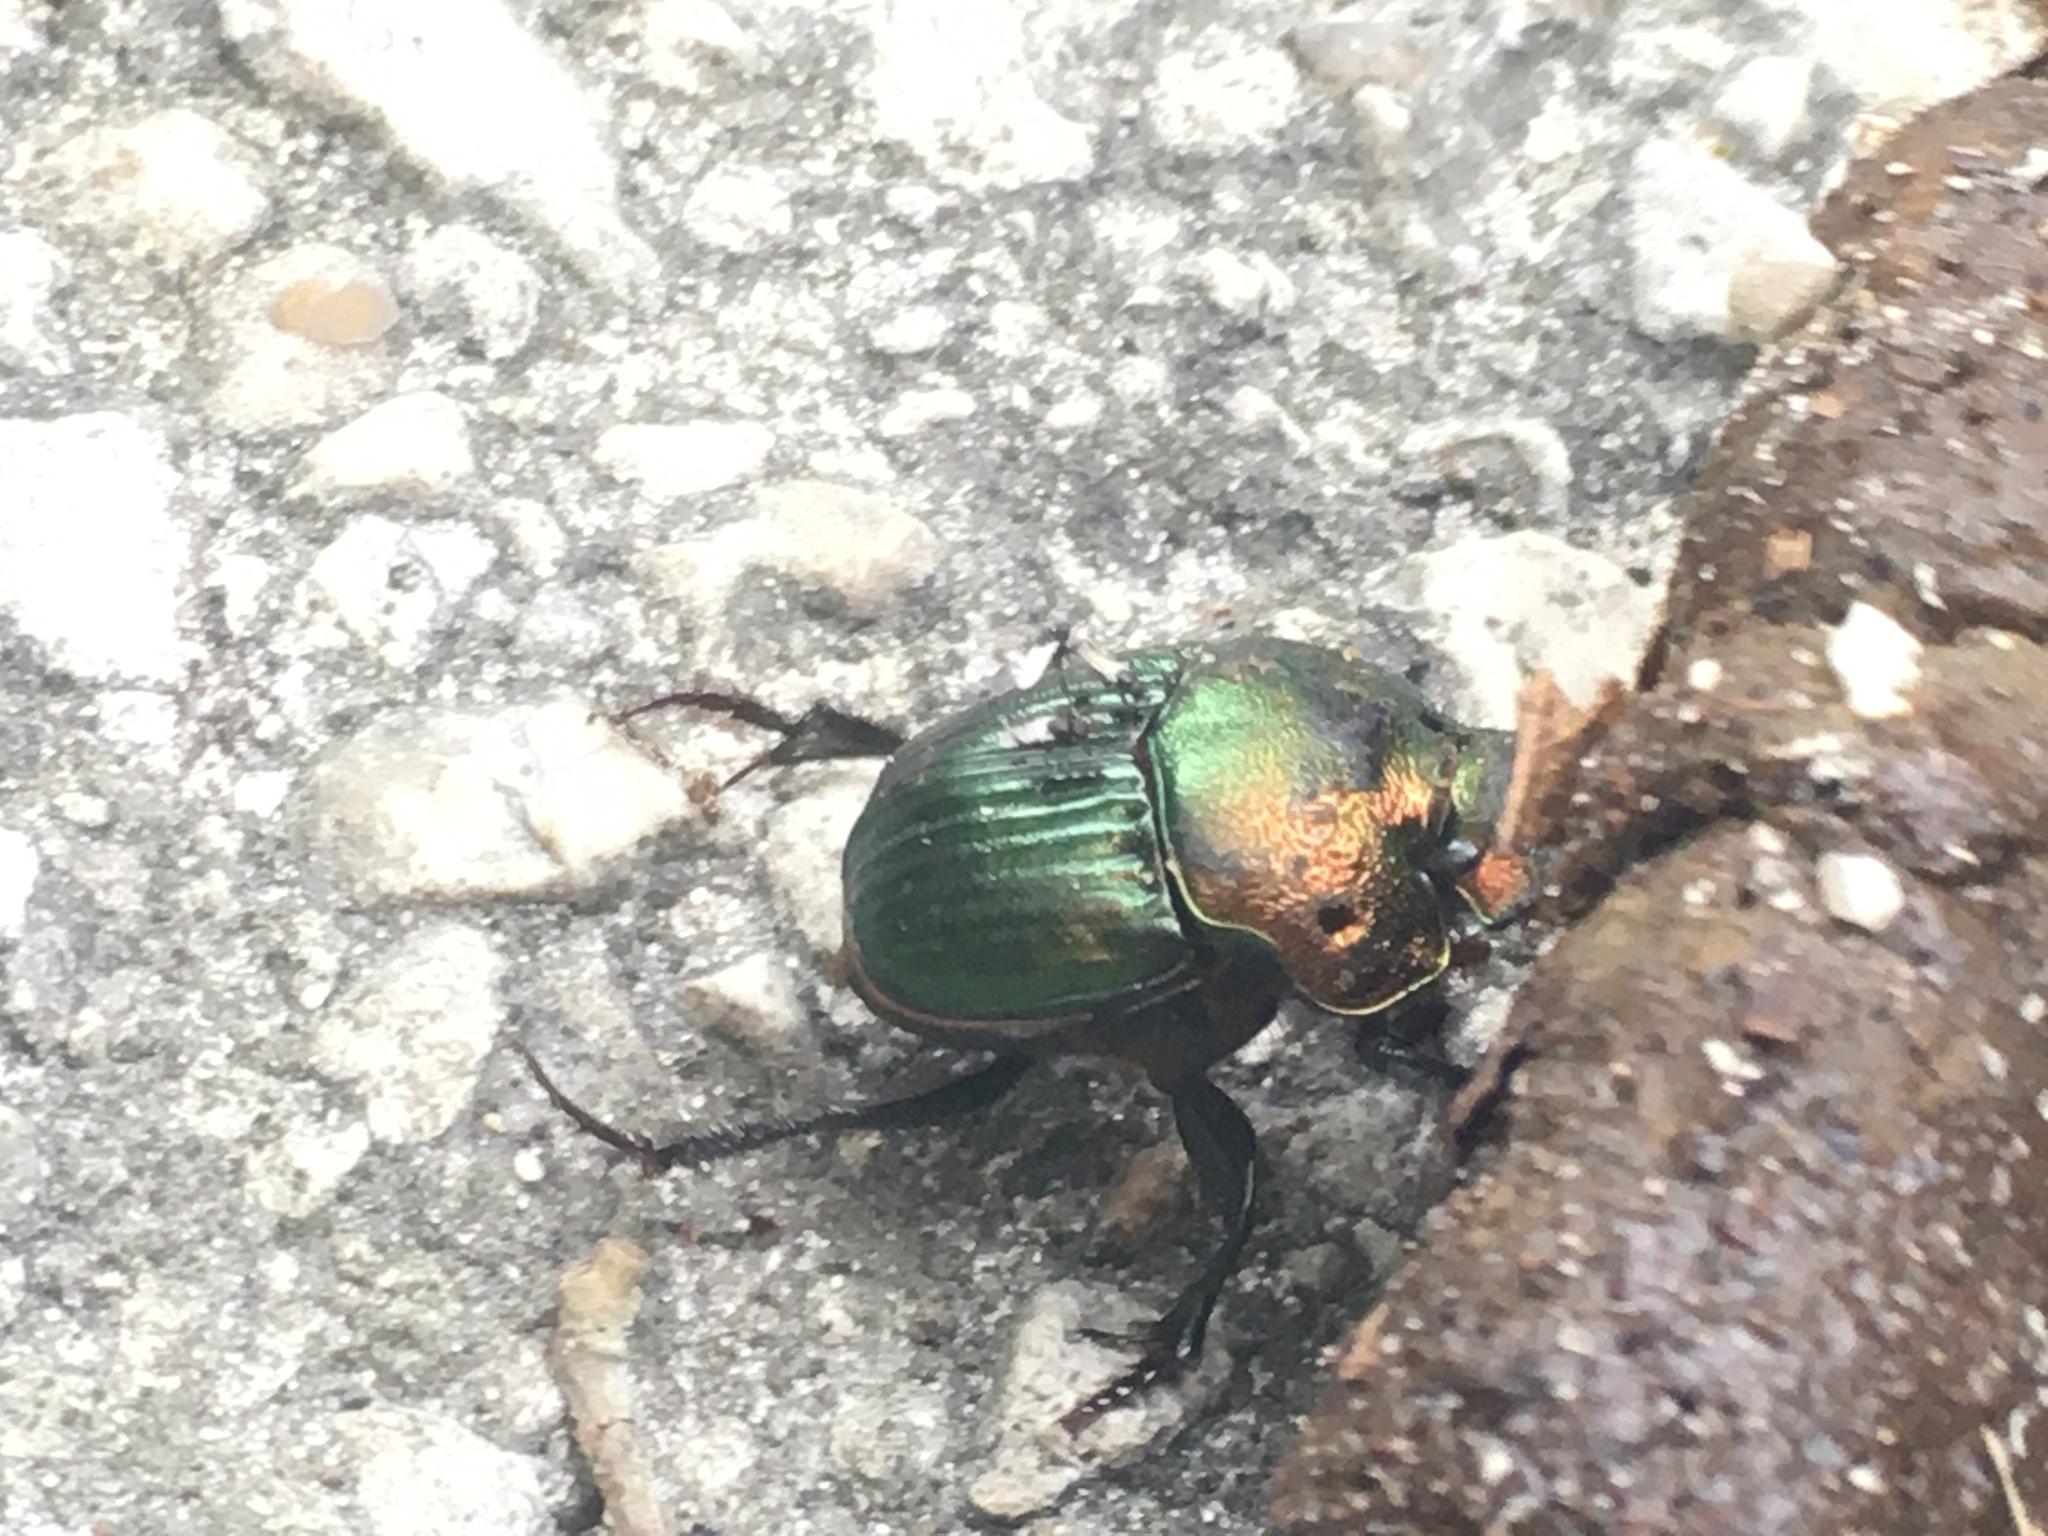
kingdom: Animalia
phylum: Arthropoda
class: Insecta
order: Coleoptera
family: Scarabaeidae
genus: Phanaeus
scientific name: Phanaeus igneus
